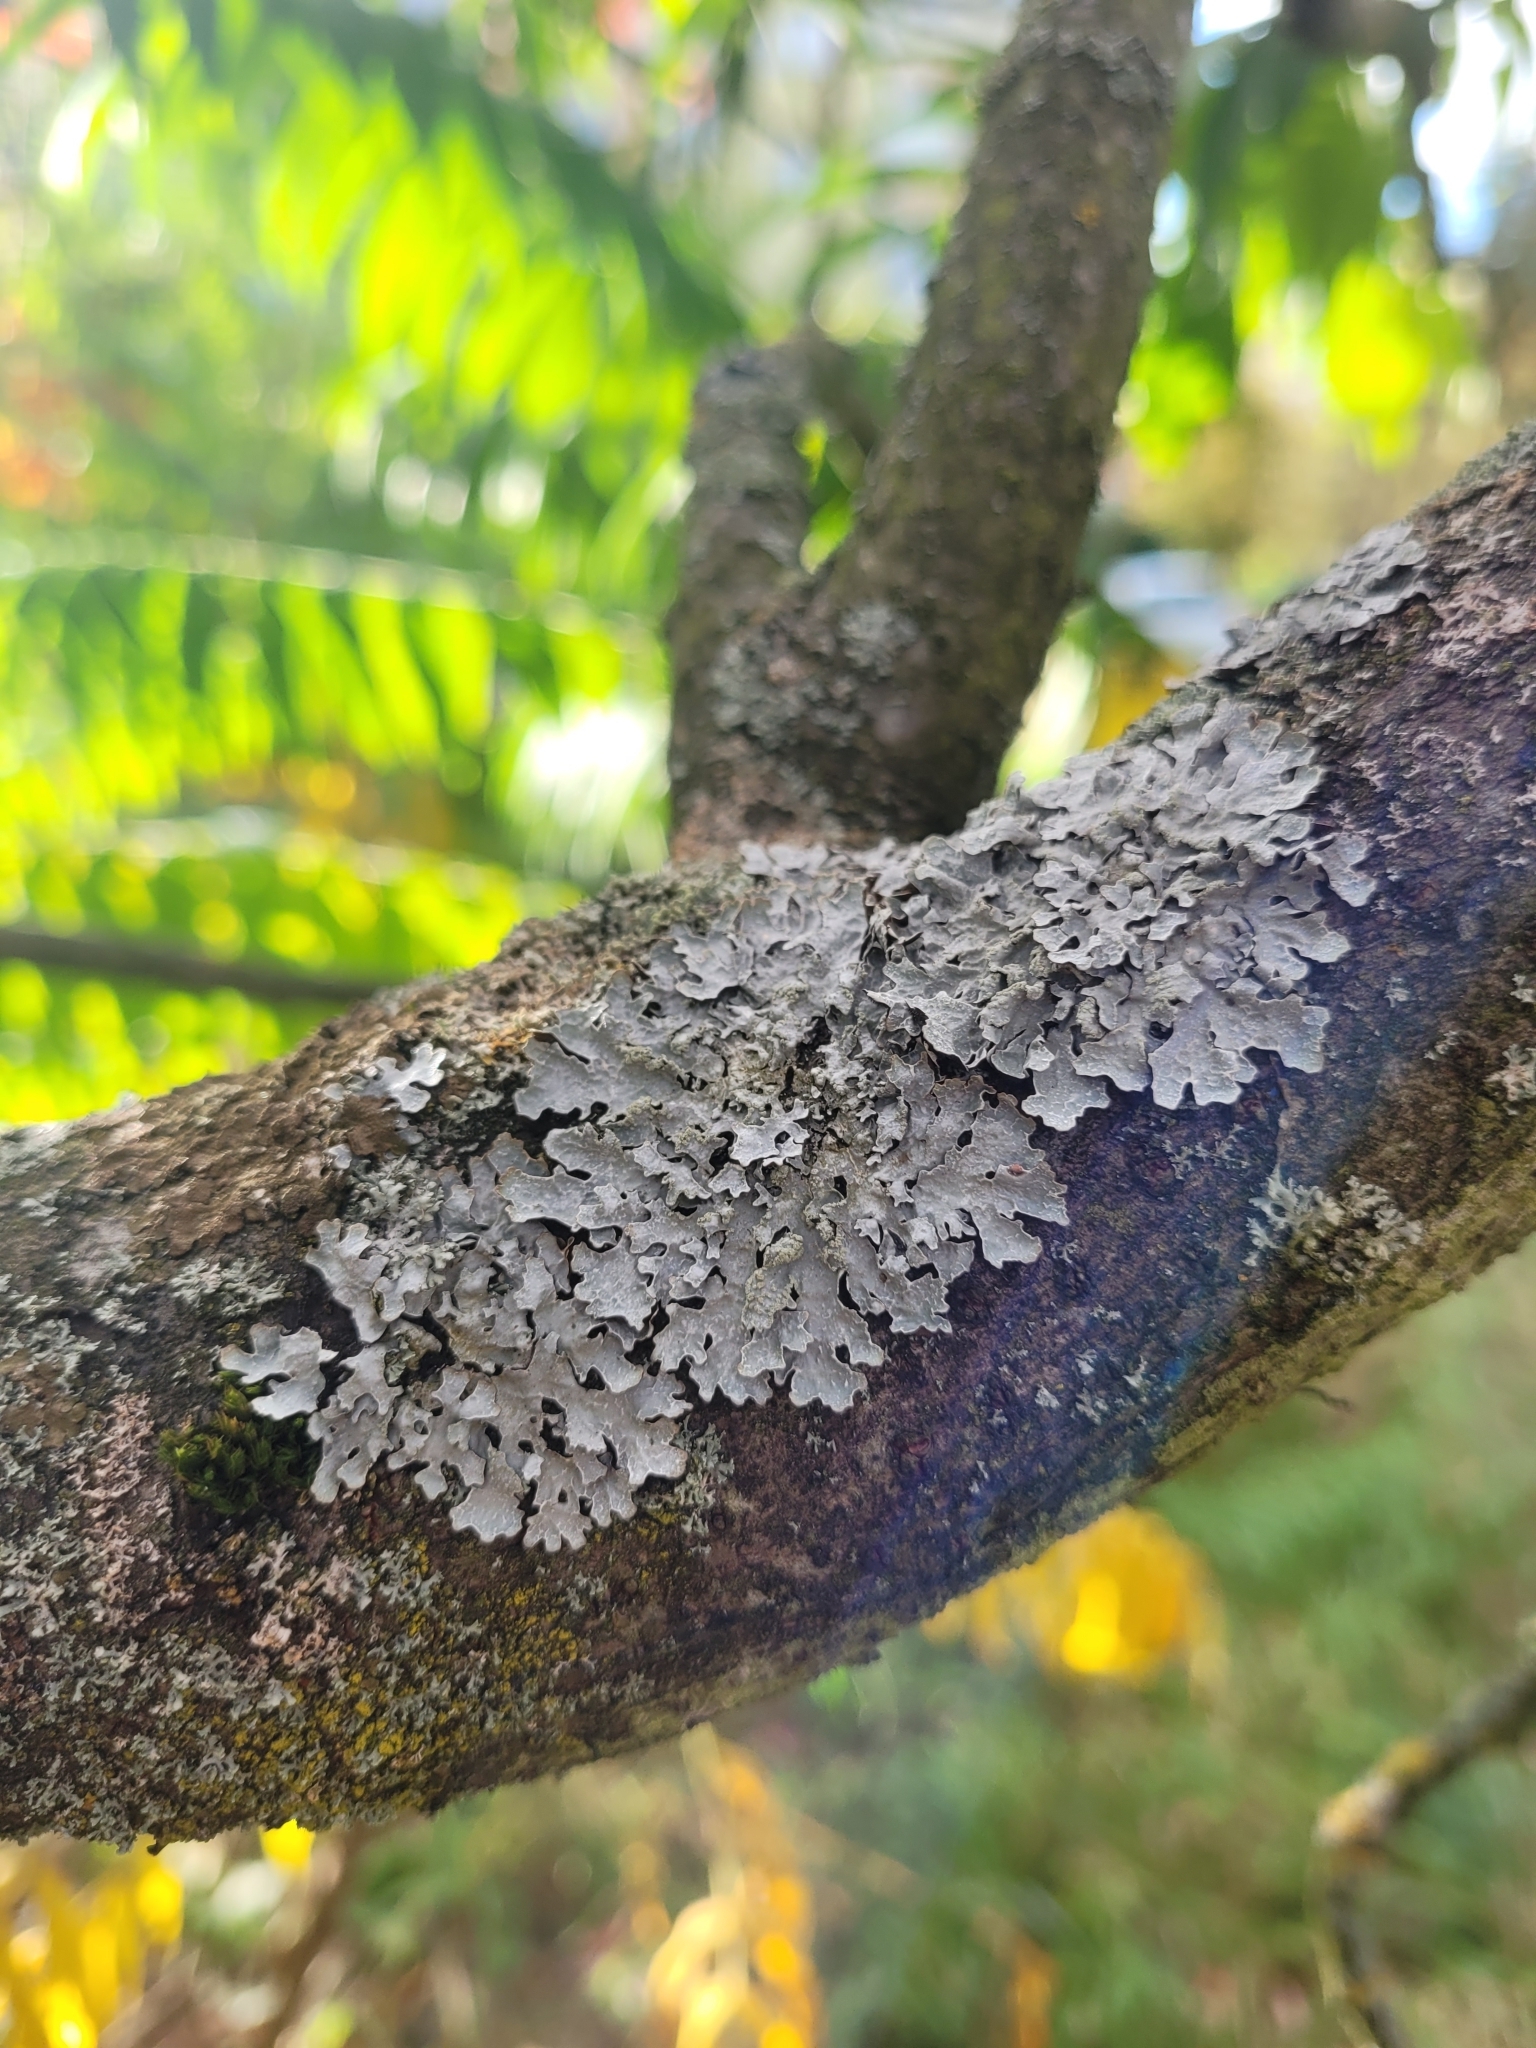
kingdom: Fungi
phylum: Ascomycota
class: Lecanoromycetes
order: Lecanorales
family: Parmeliaceae
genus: Parmelia
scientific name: Parmelia sulcata
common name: Netted shield lichen
